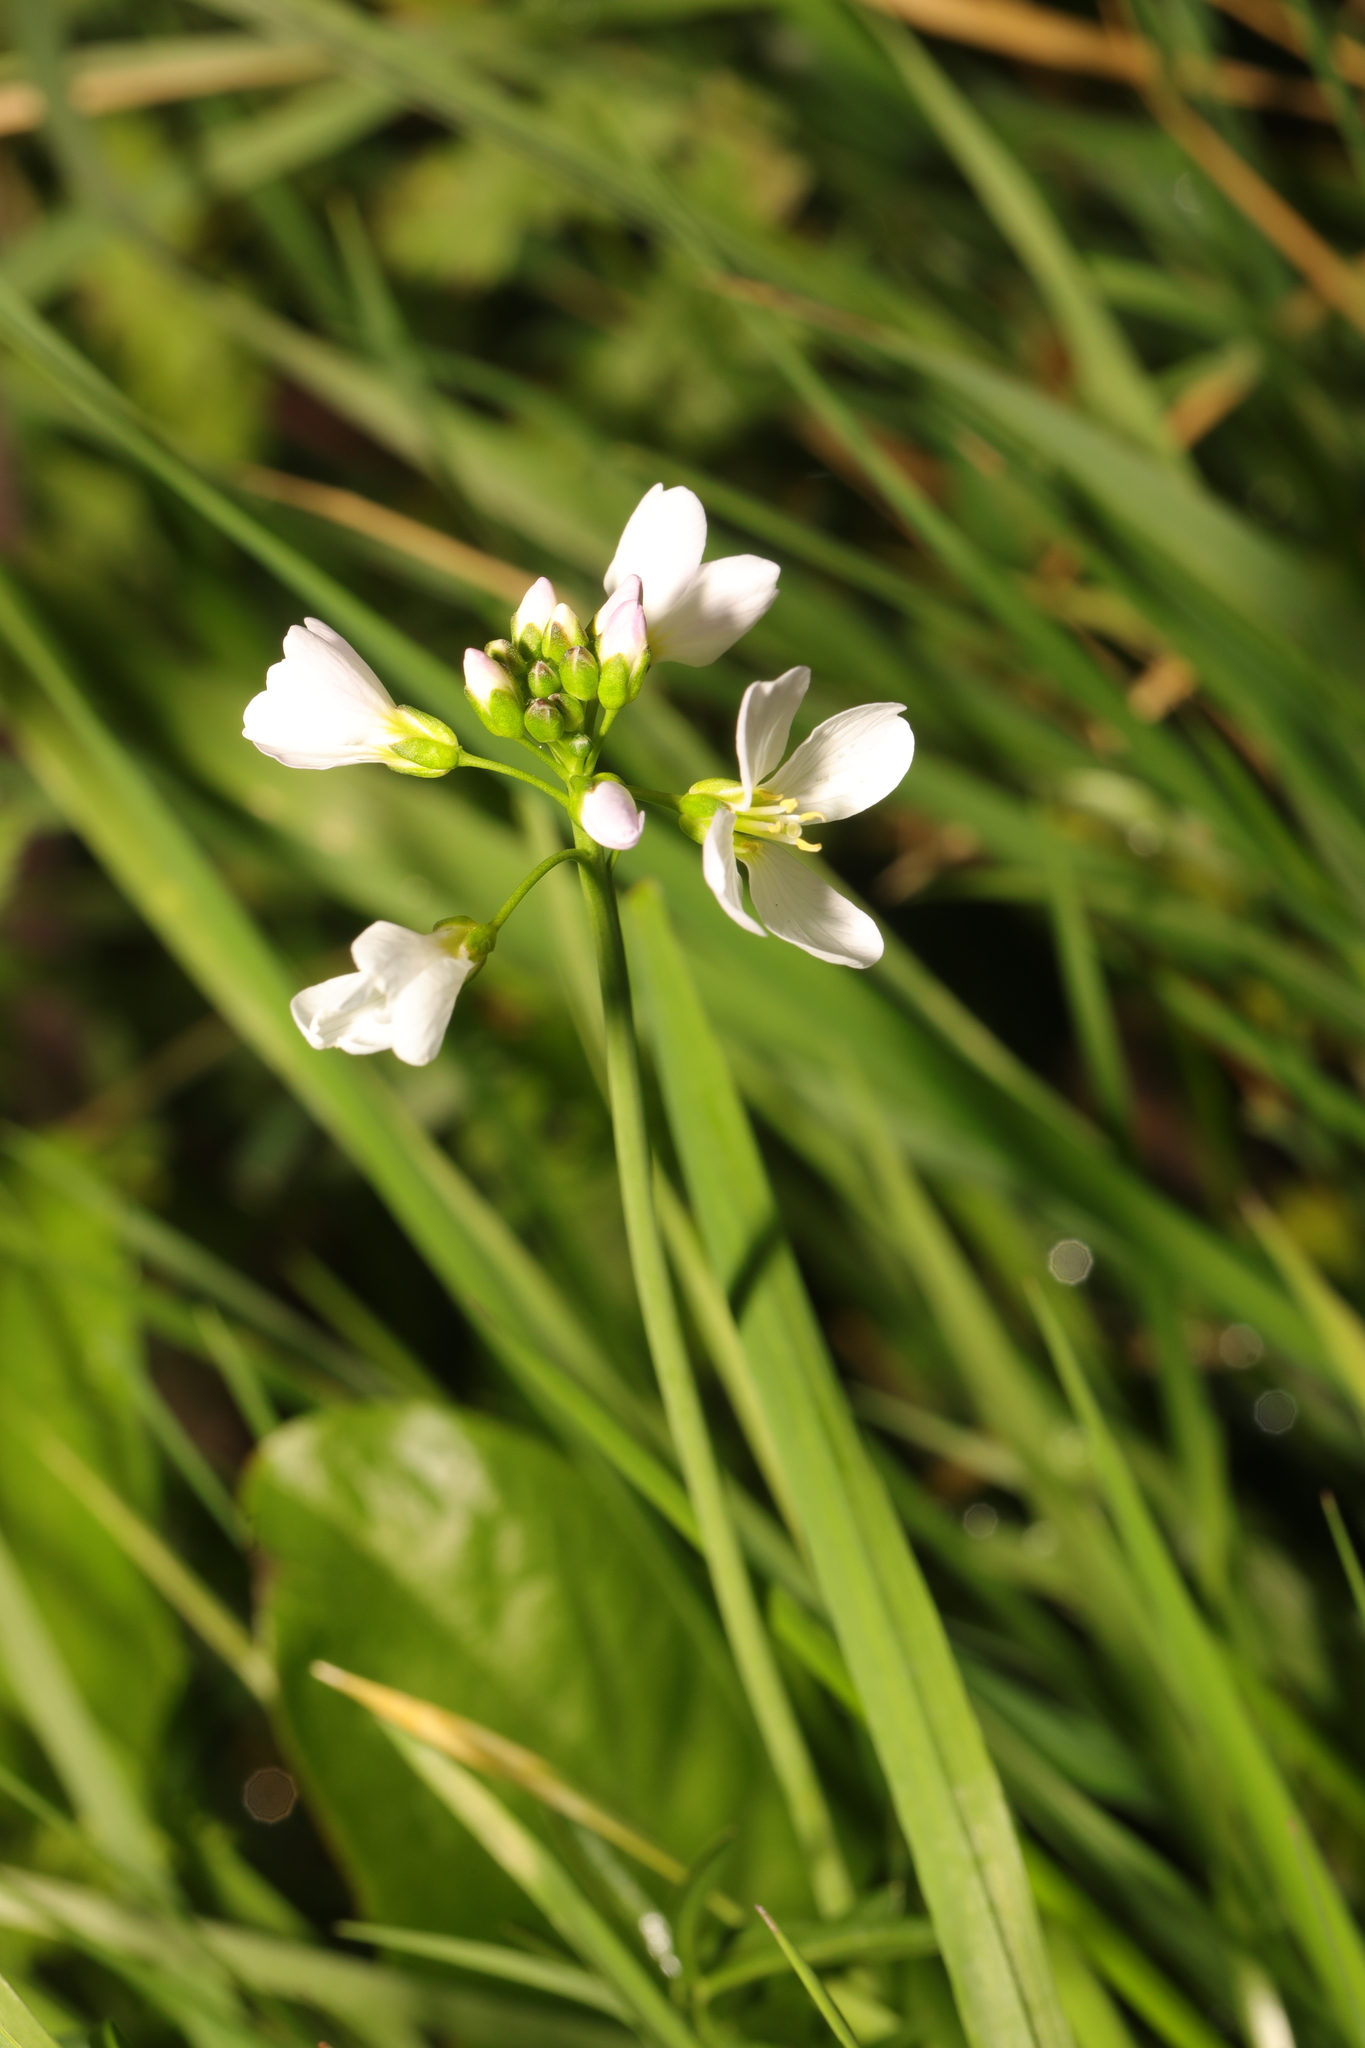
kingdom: Plantae
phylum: Tracheophyta
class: Magnoliopsida
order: Brassicales
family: Brassicaceae
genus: Cardamine
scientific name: Cardamine pratensis
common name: Cuckoo flower
